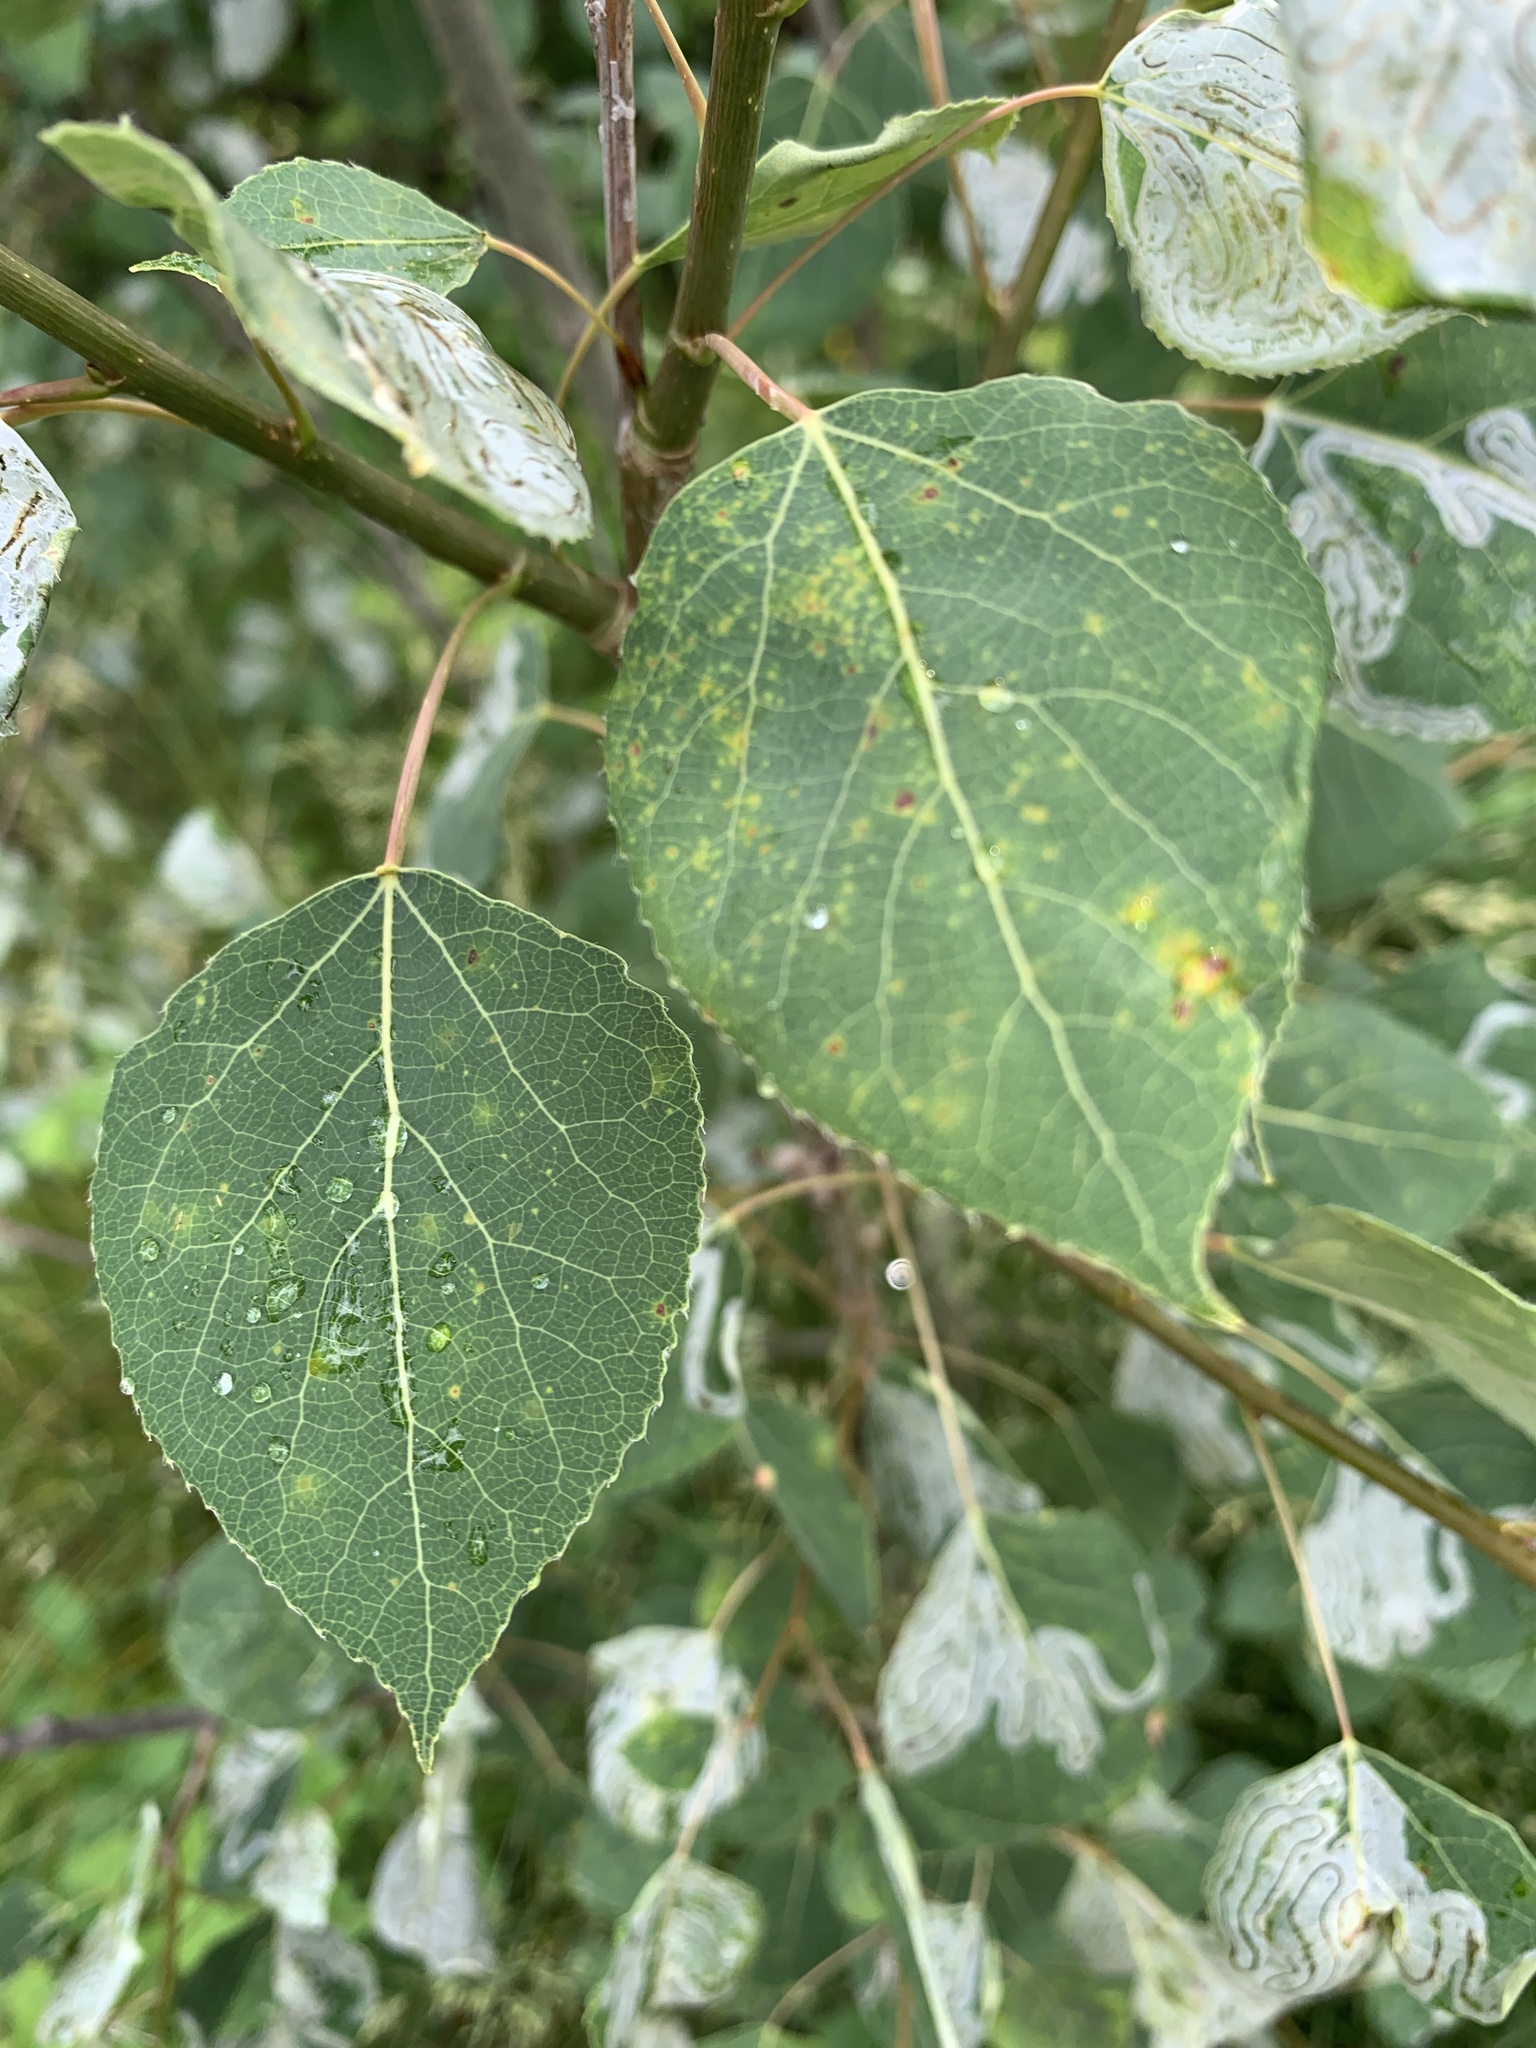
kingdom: Plantae
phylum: Tracheophyta
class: Magnoliopsida
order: Malpighiales
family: Salicaceae
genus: Populus
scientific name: Populus tremuloides
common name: Quaking aspen
